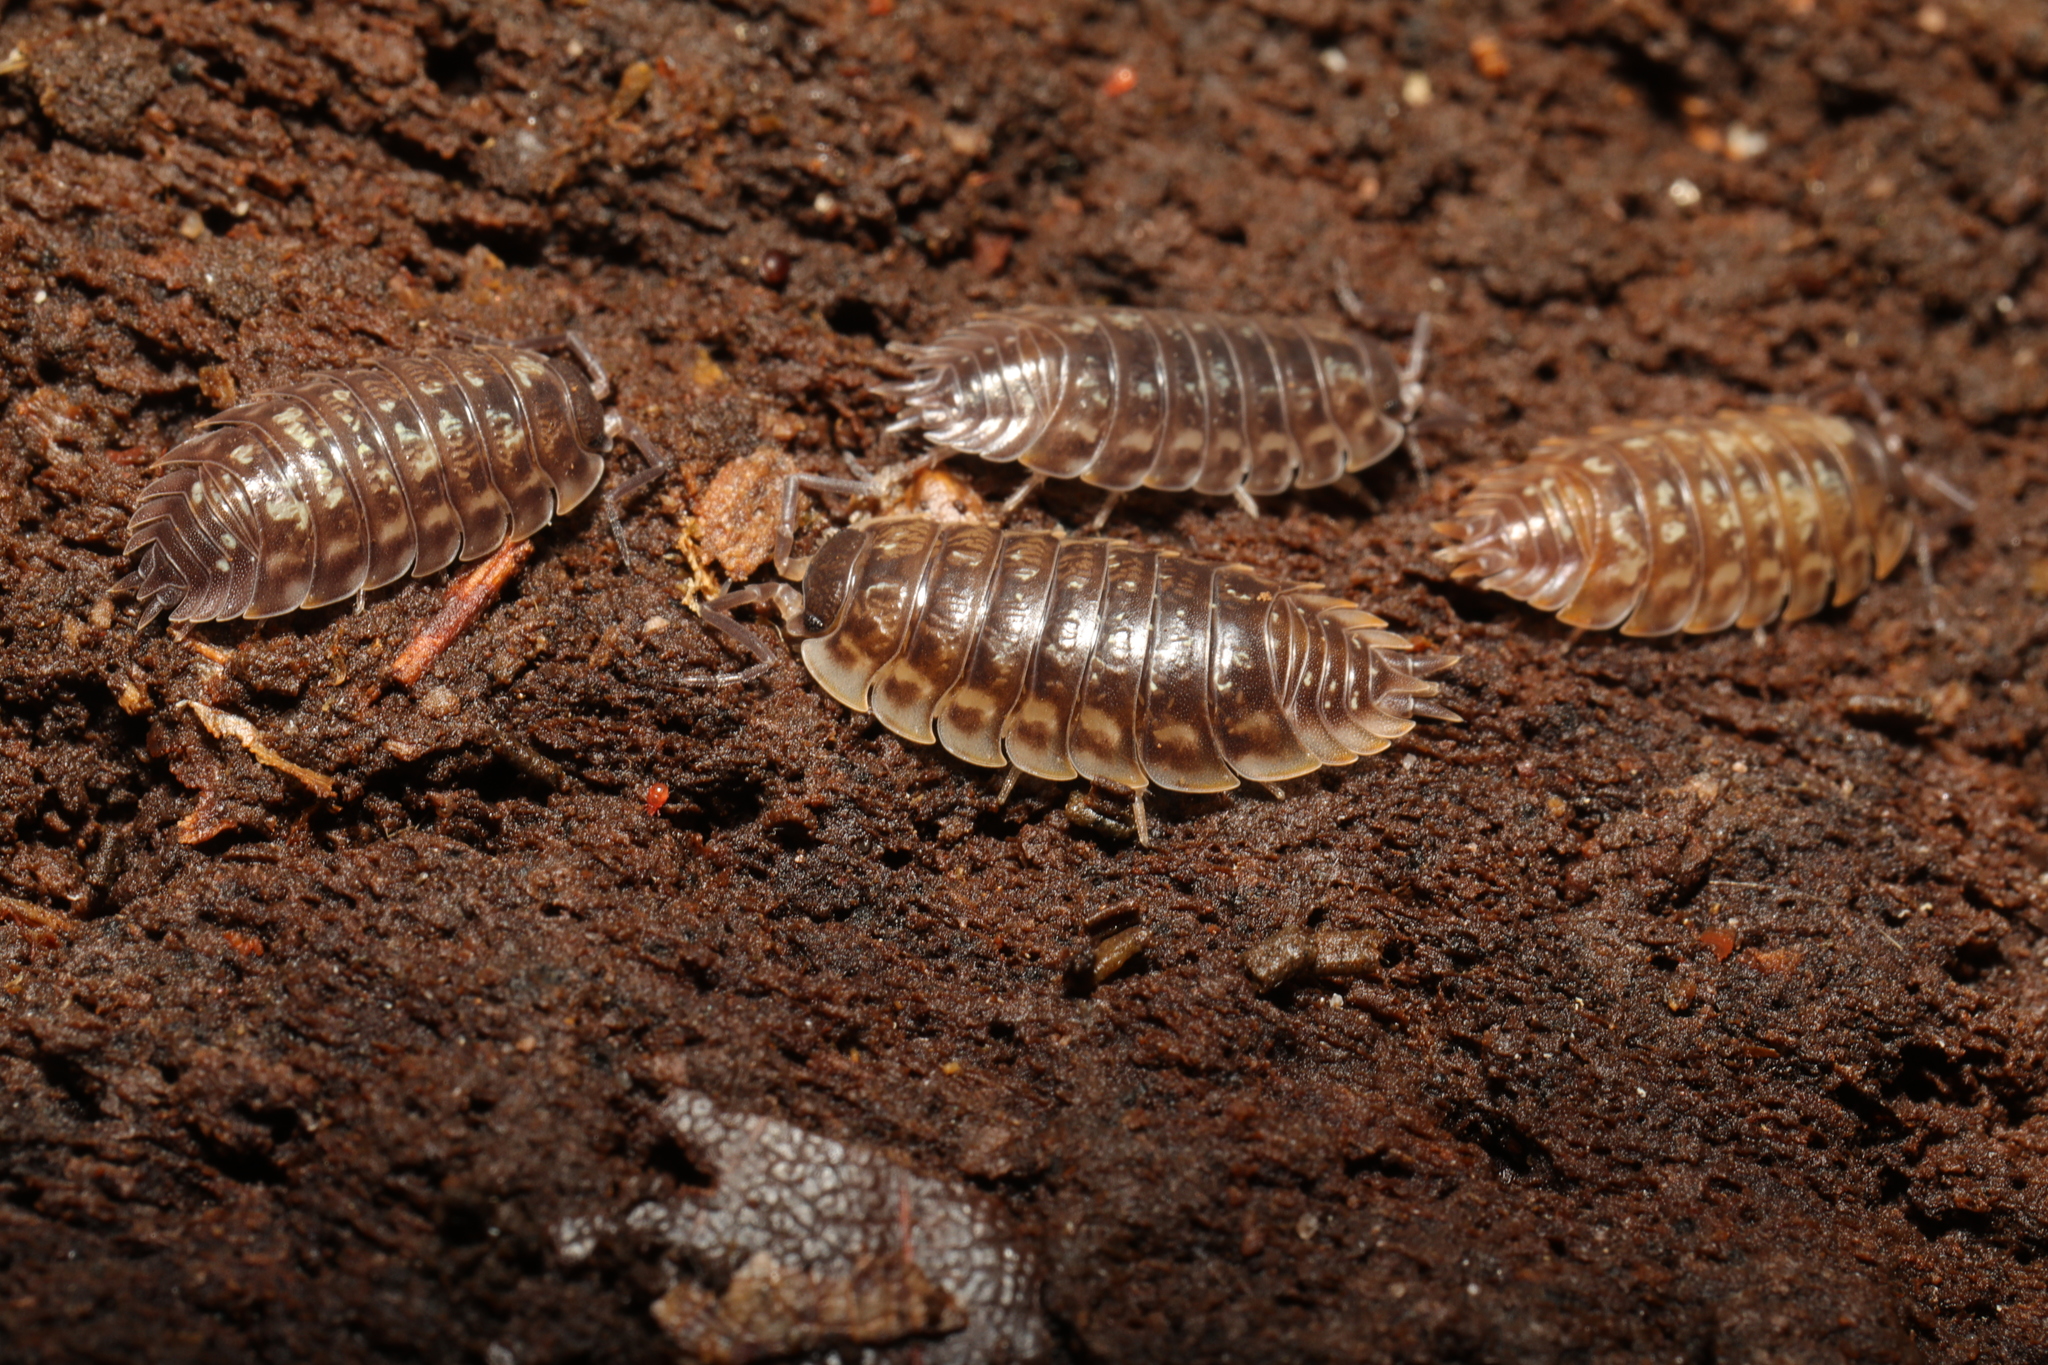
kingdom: Animalia
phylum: Arthropoda
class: Malacostraca
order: Isopoda
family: Oniscidae
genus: Oniscus
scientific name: Oniscus asellus
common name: Common shiny woodlouse
